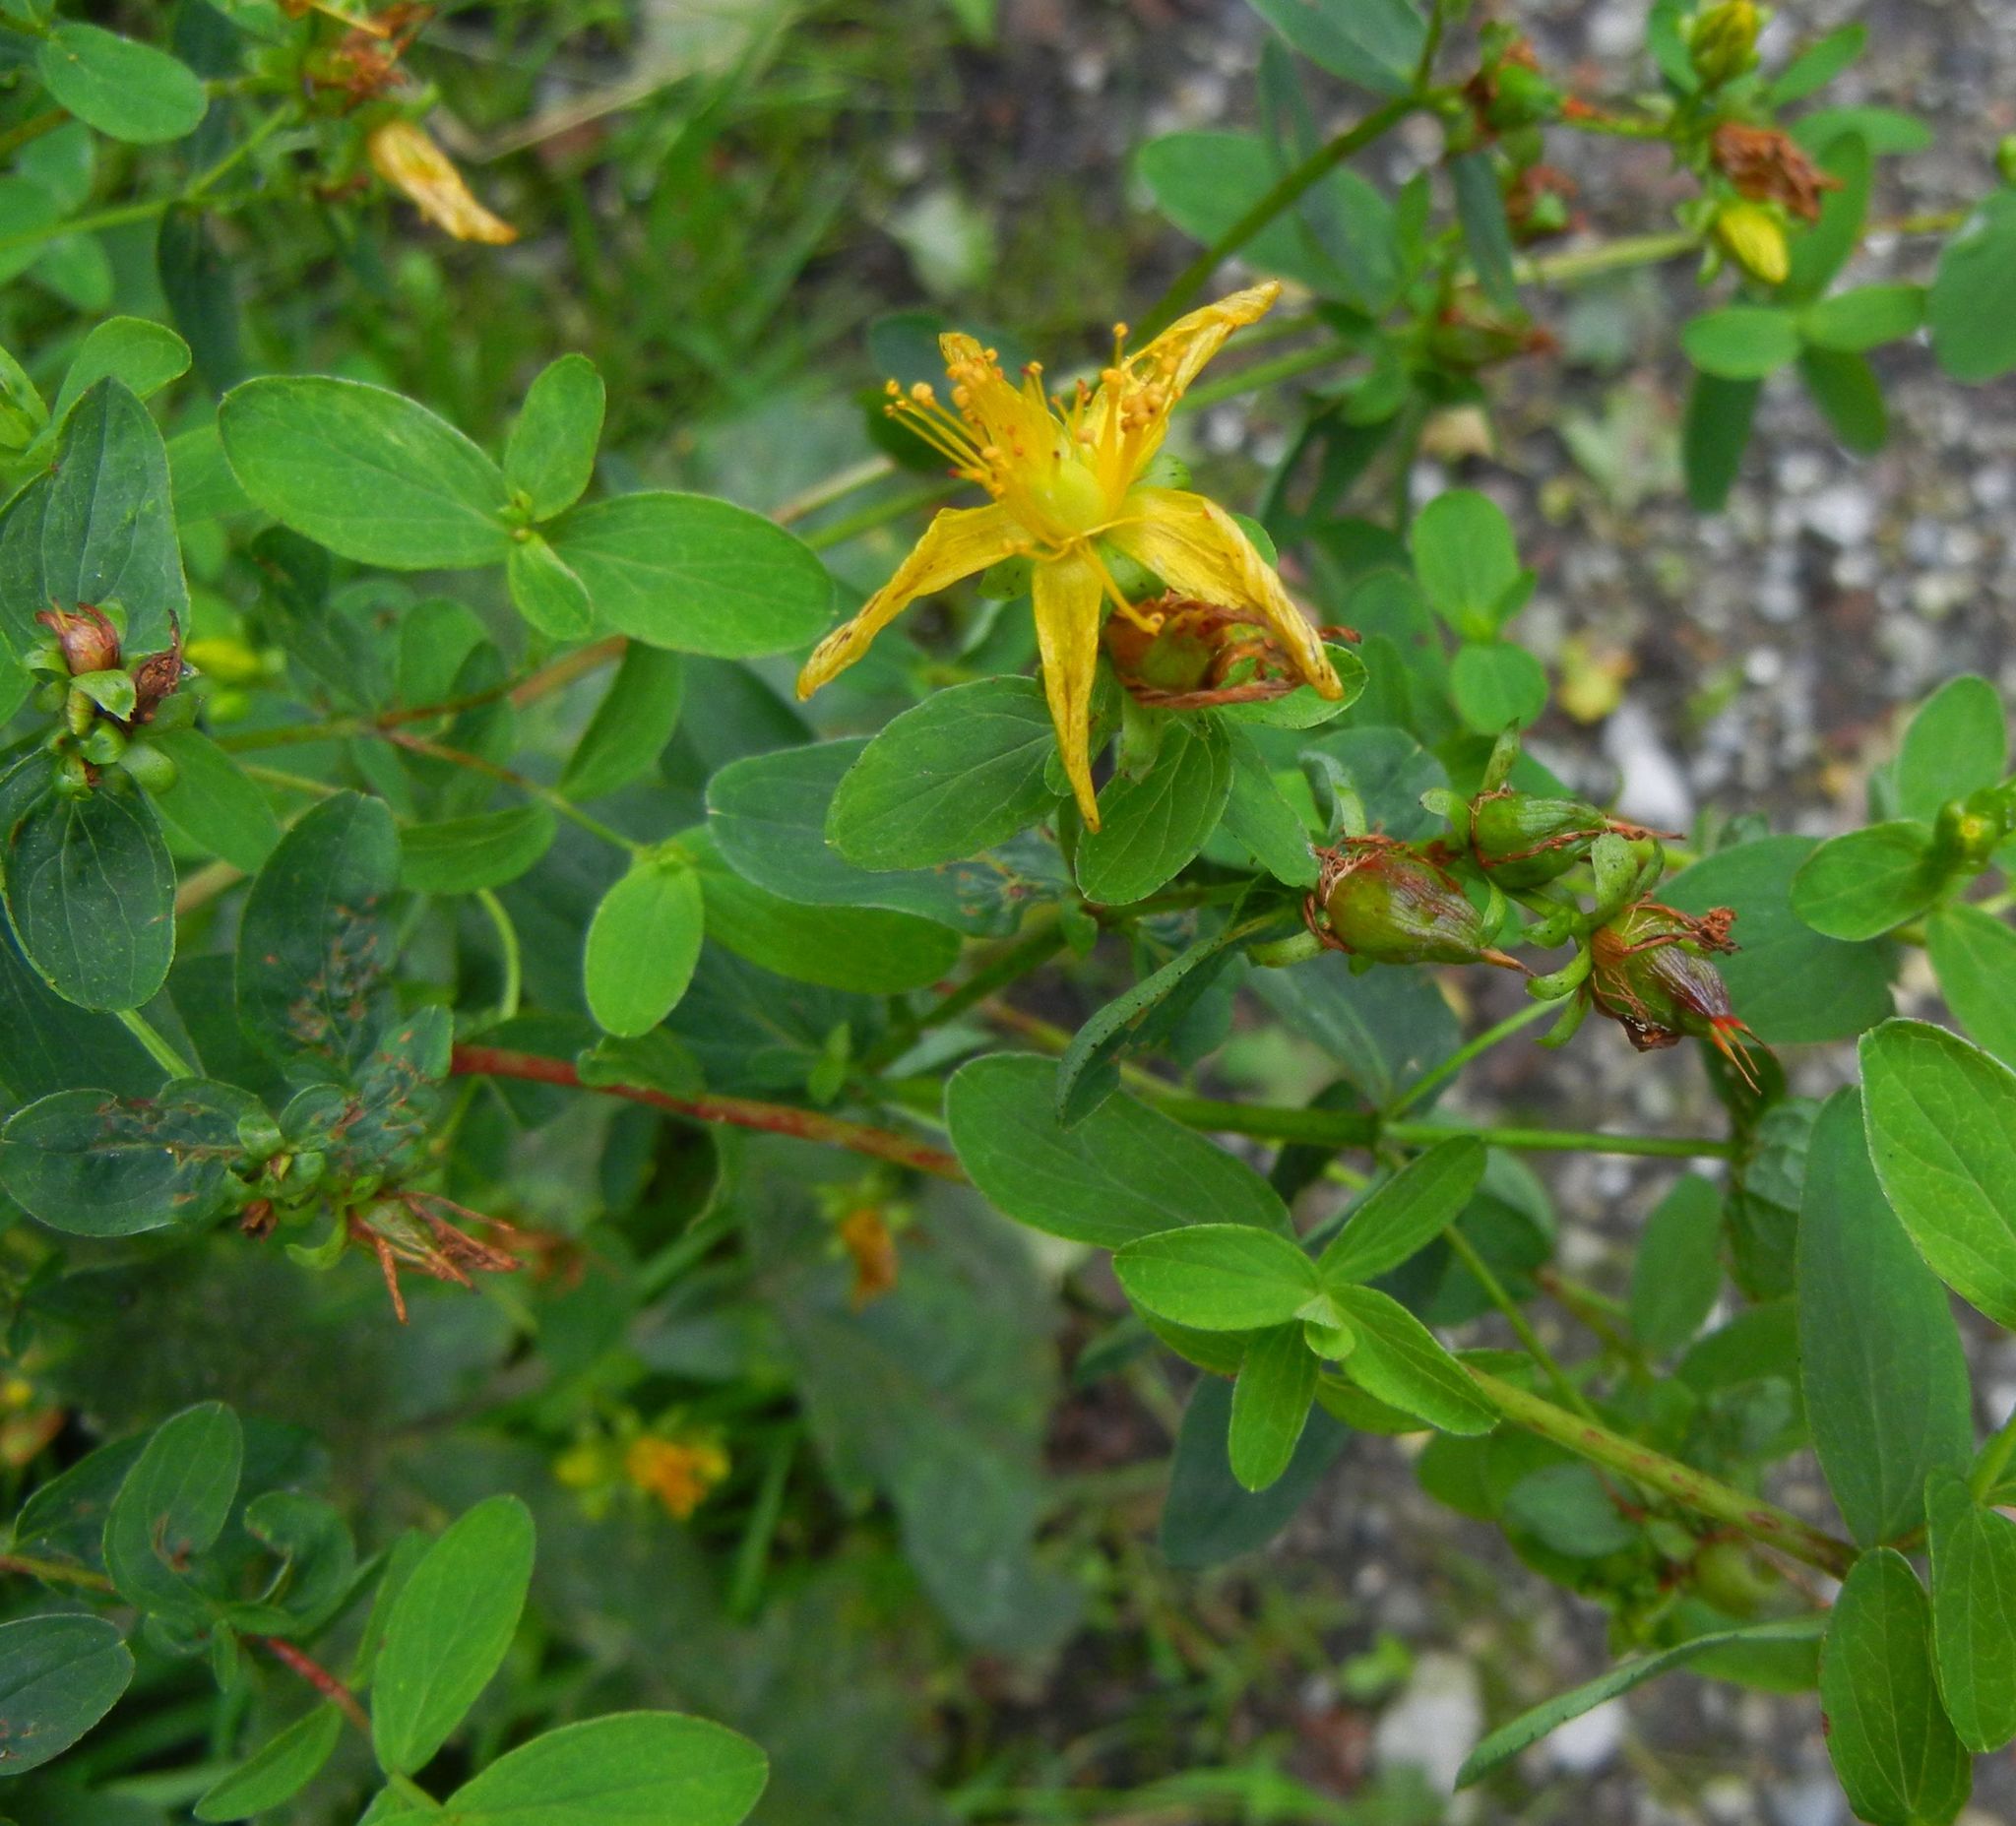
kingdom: Plantae
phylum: Tracheophyta
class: Magnoliopsida
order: Malpighiales
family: Hypericaceae
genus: Hypericum
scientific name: Hypericum dubium
